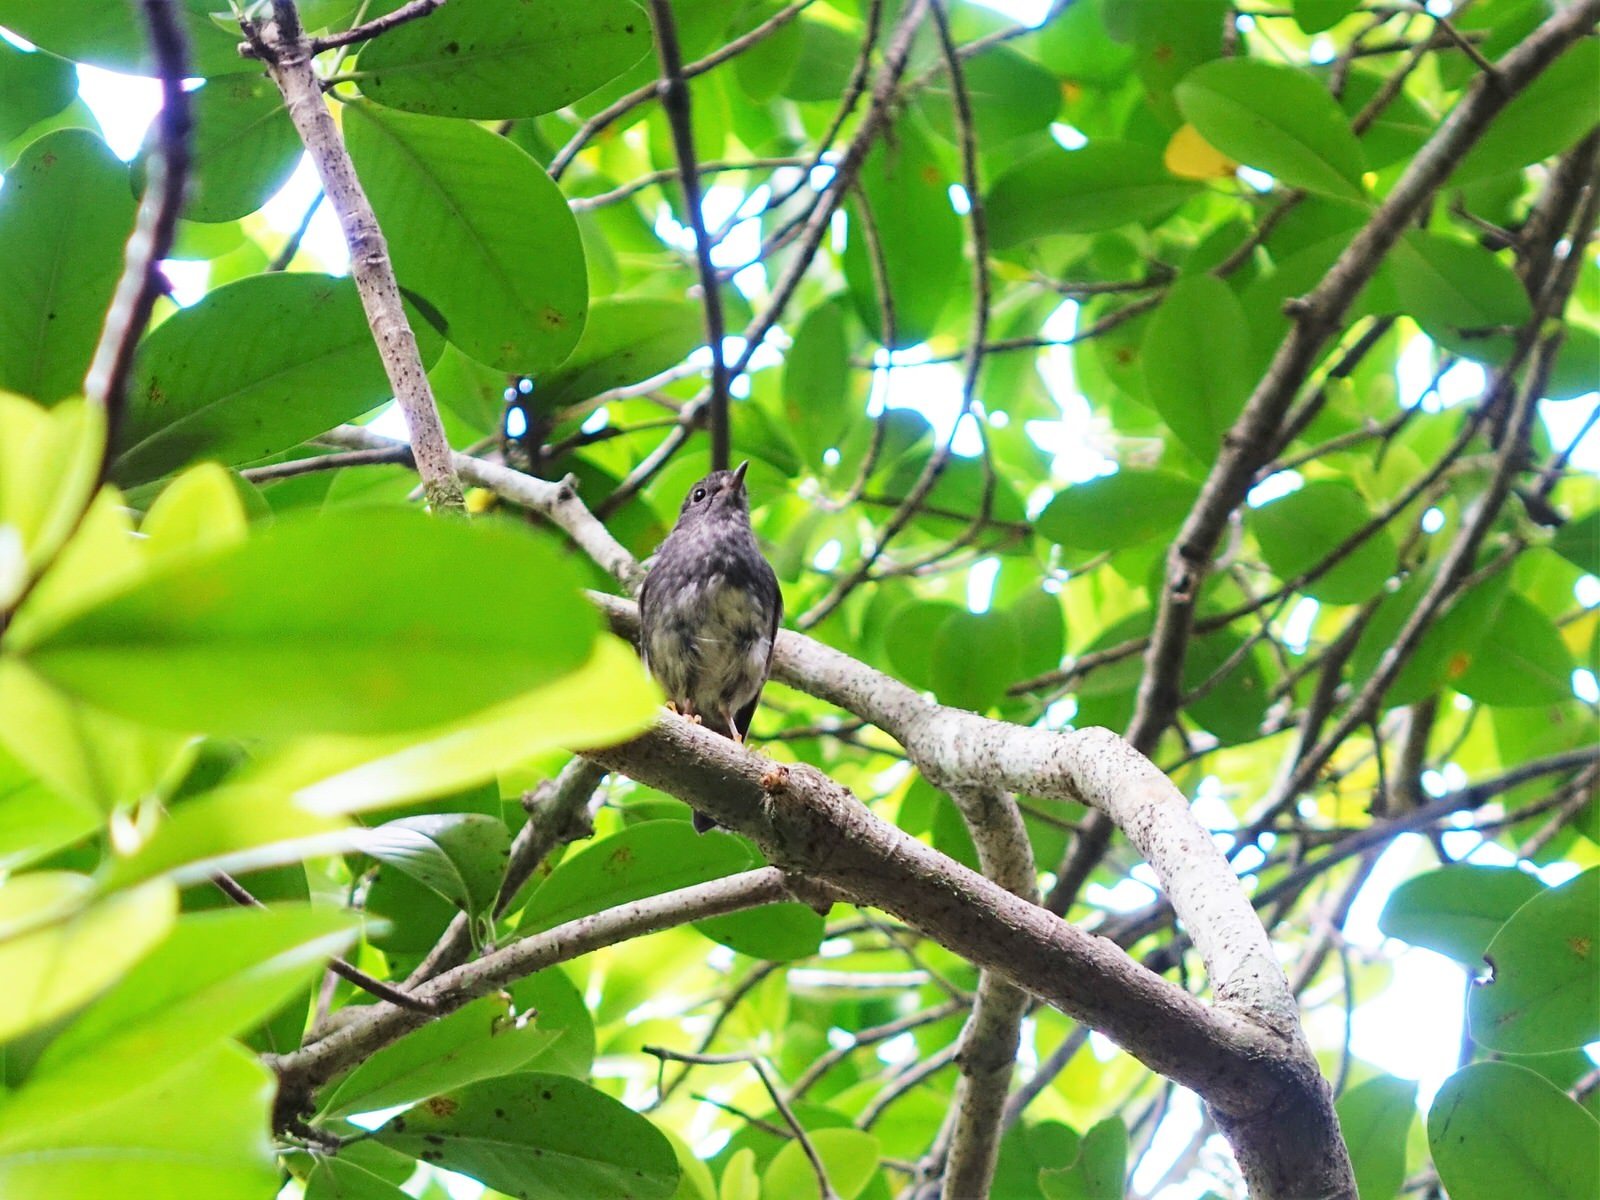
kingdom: Animalia
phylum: Chordata
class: Aves
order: Passeriformes
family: Petroicidae
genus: Petroica
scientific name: Petroica australis
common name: New zealand robin
